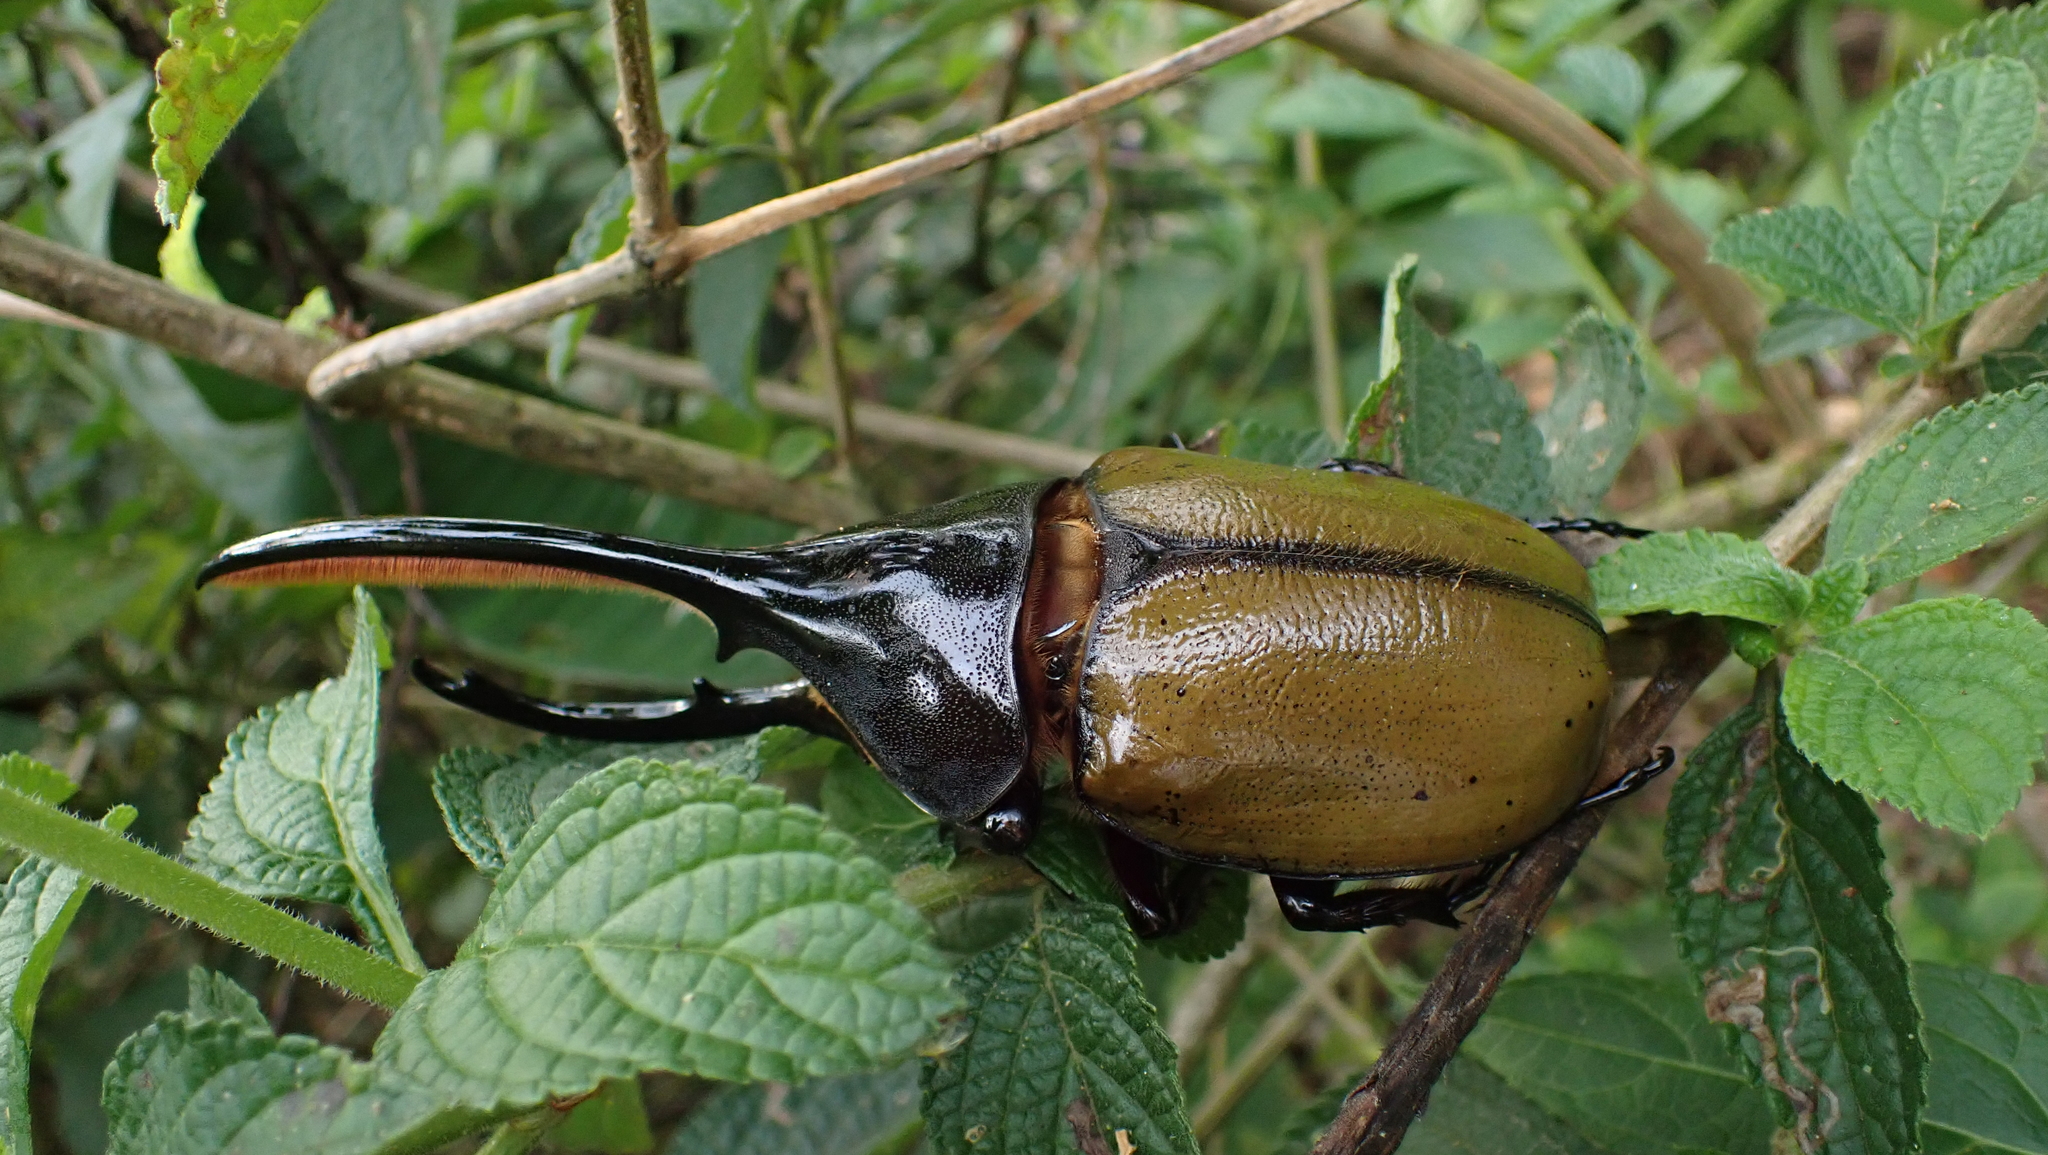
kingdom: Animalia
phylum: Arthropoda
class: Insecta
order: Coleoptera
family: Scarabaeidae
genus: Dynastes
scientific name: Dynastes
